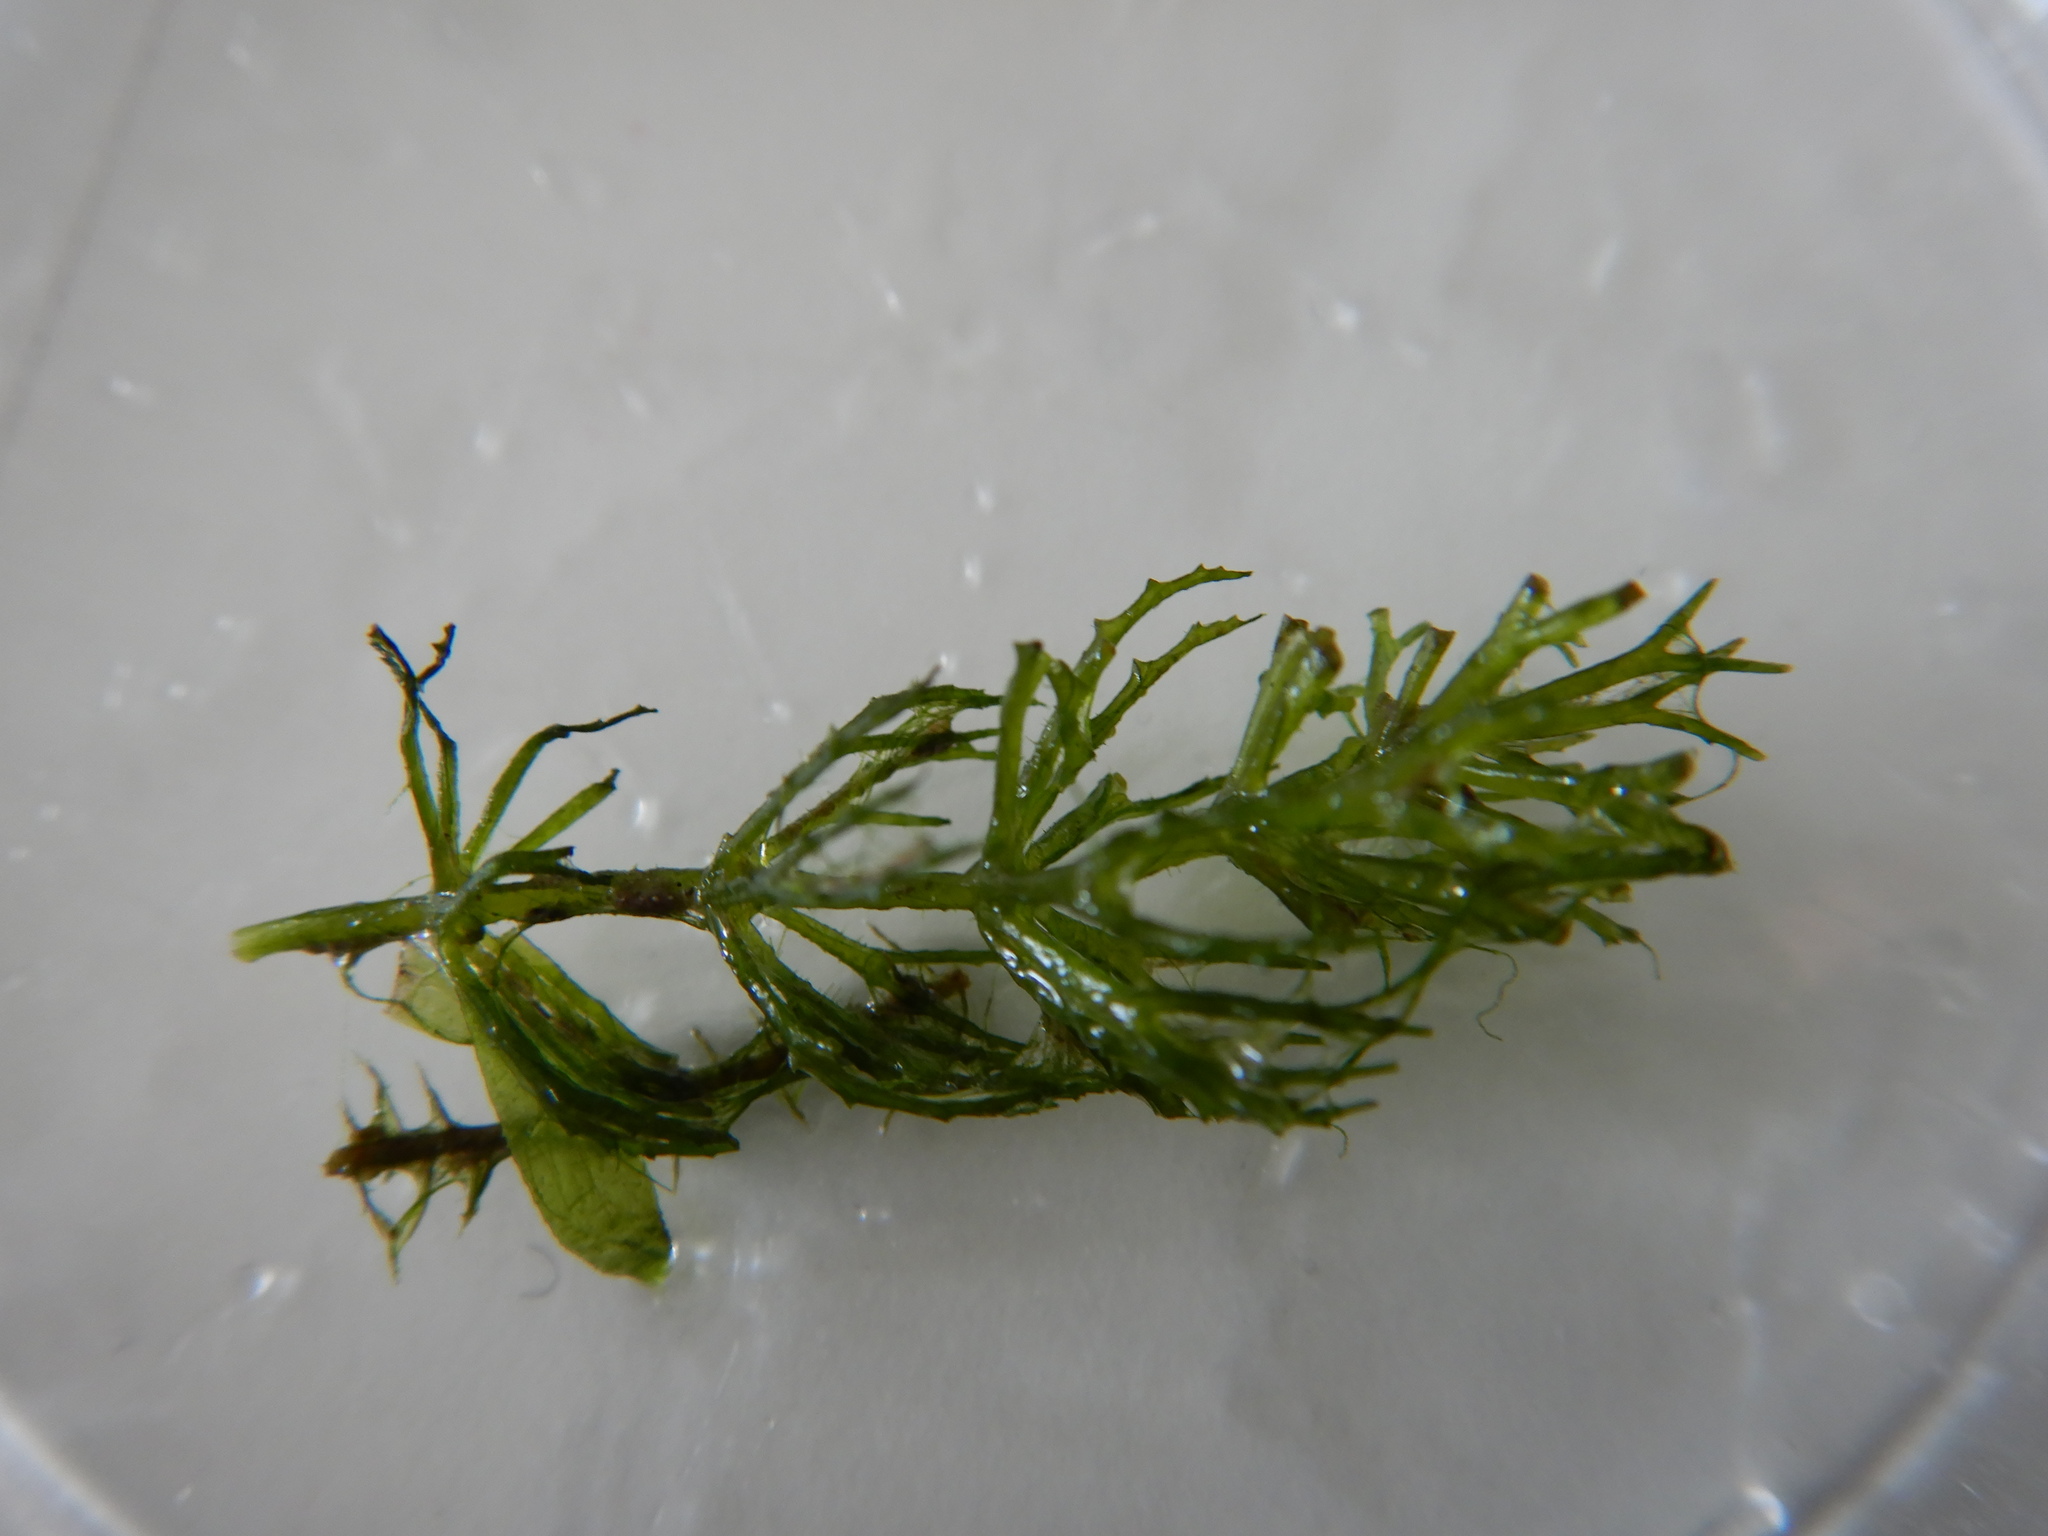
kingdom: Plantae
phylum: Tracheophyta
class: Magnoliopsida
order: Ceratophyllales
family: Ceratophyllaceae
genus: Ceratophyllum
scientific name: Ceratophyllum demersum
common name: Rigid hornwort
